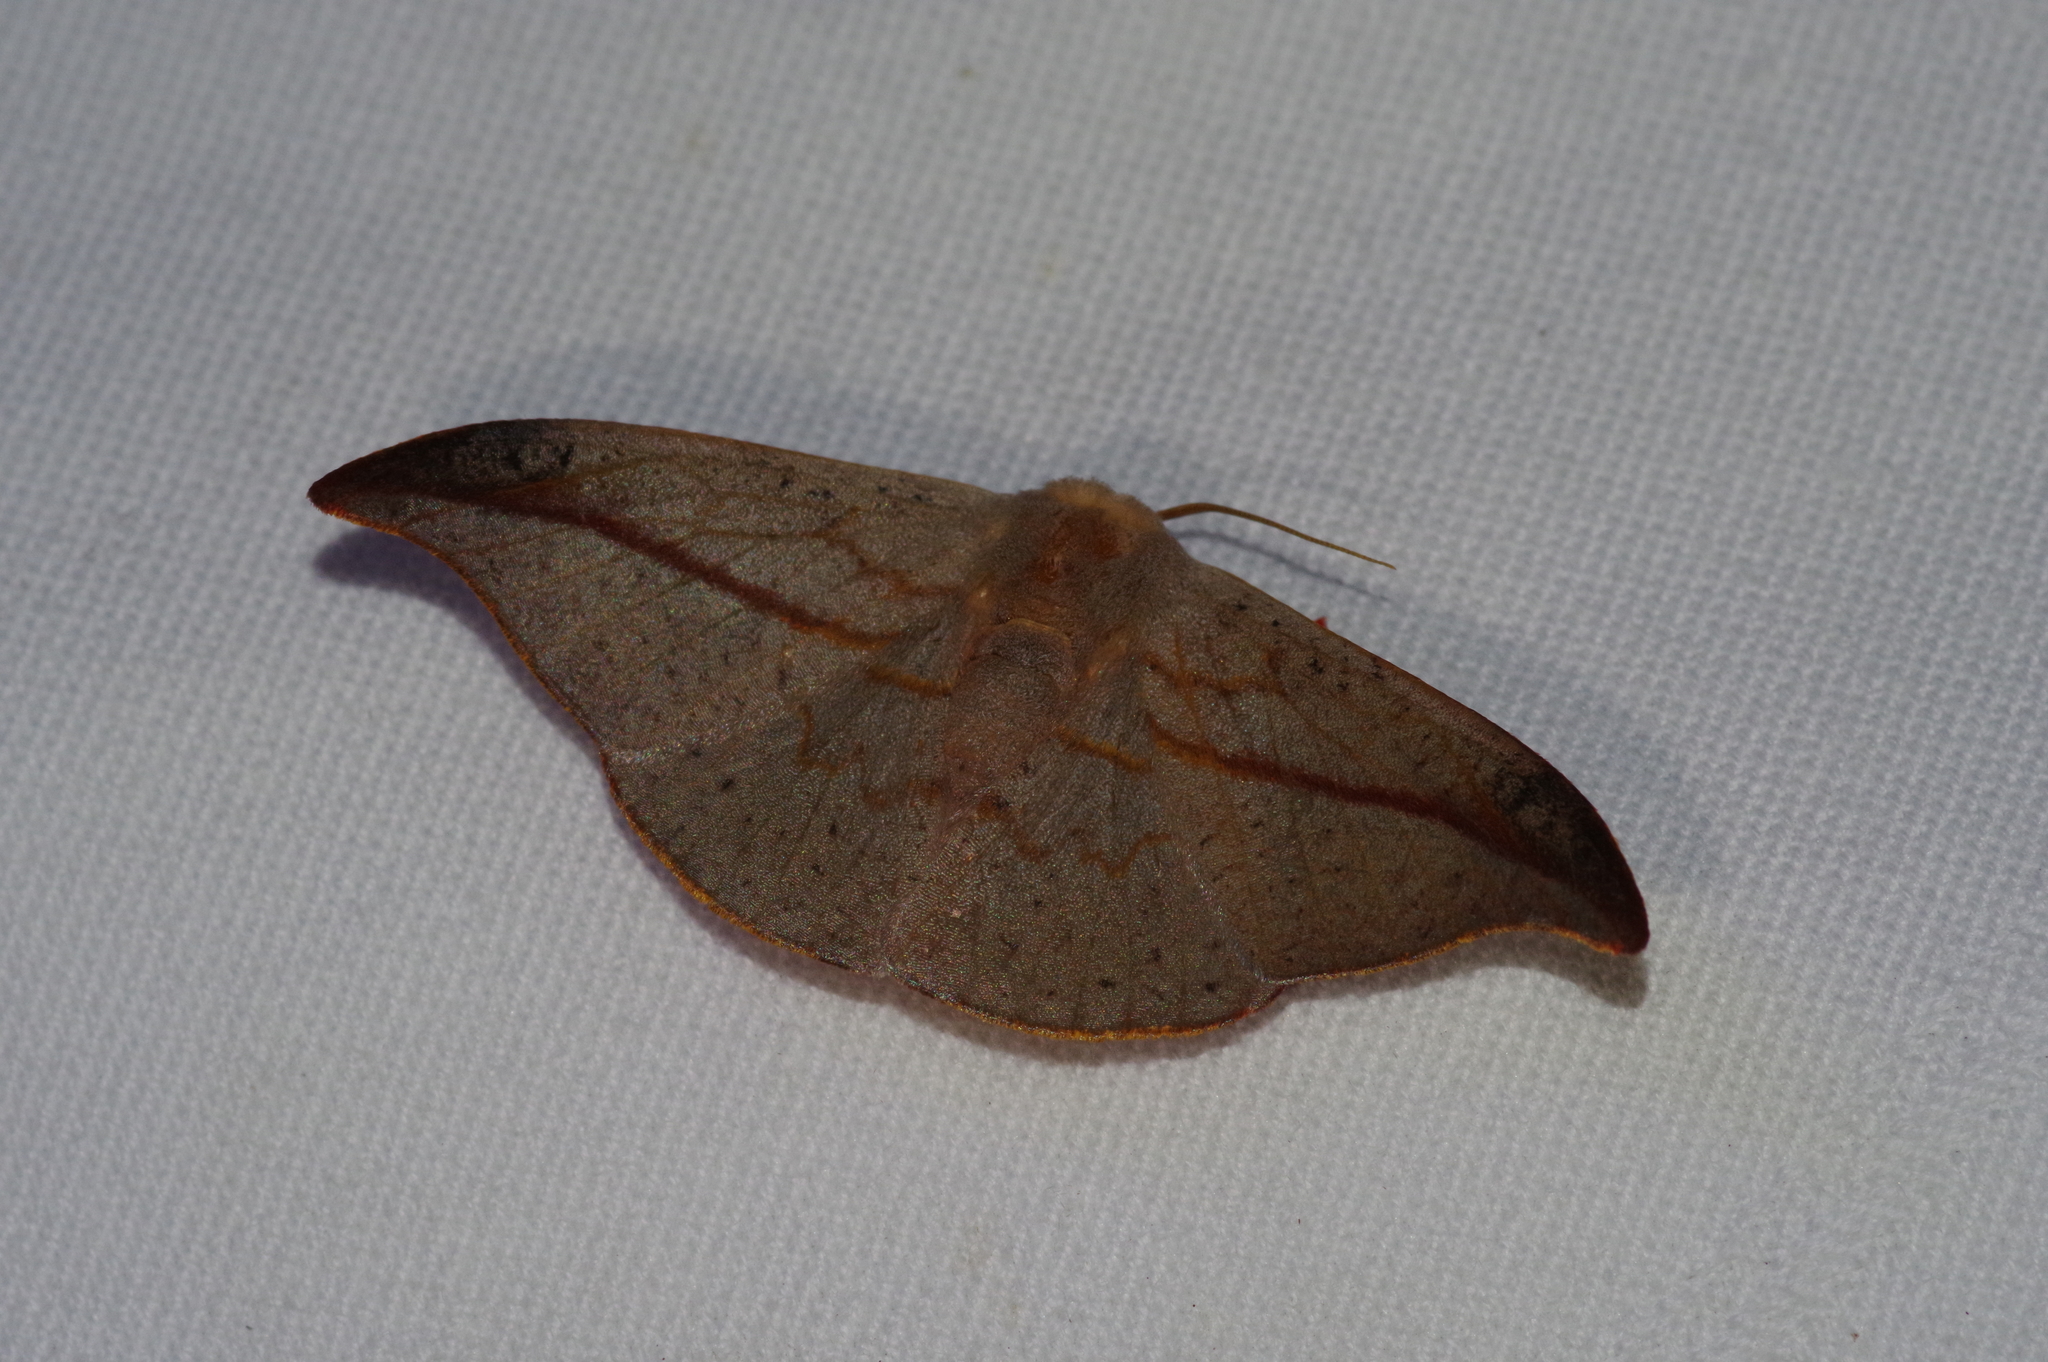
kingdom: Animalia
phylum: Arthropoda
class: Insecta
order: Lepidoptera
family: Drepanidae
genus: Oreta
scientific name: Oreta insignis
